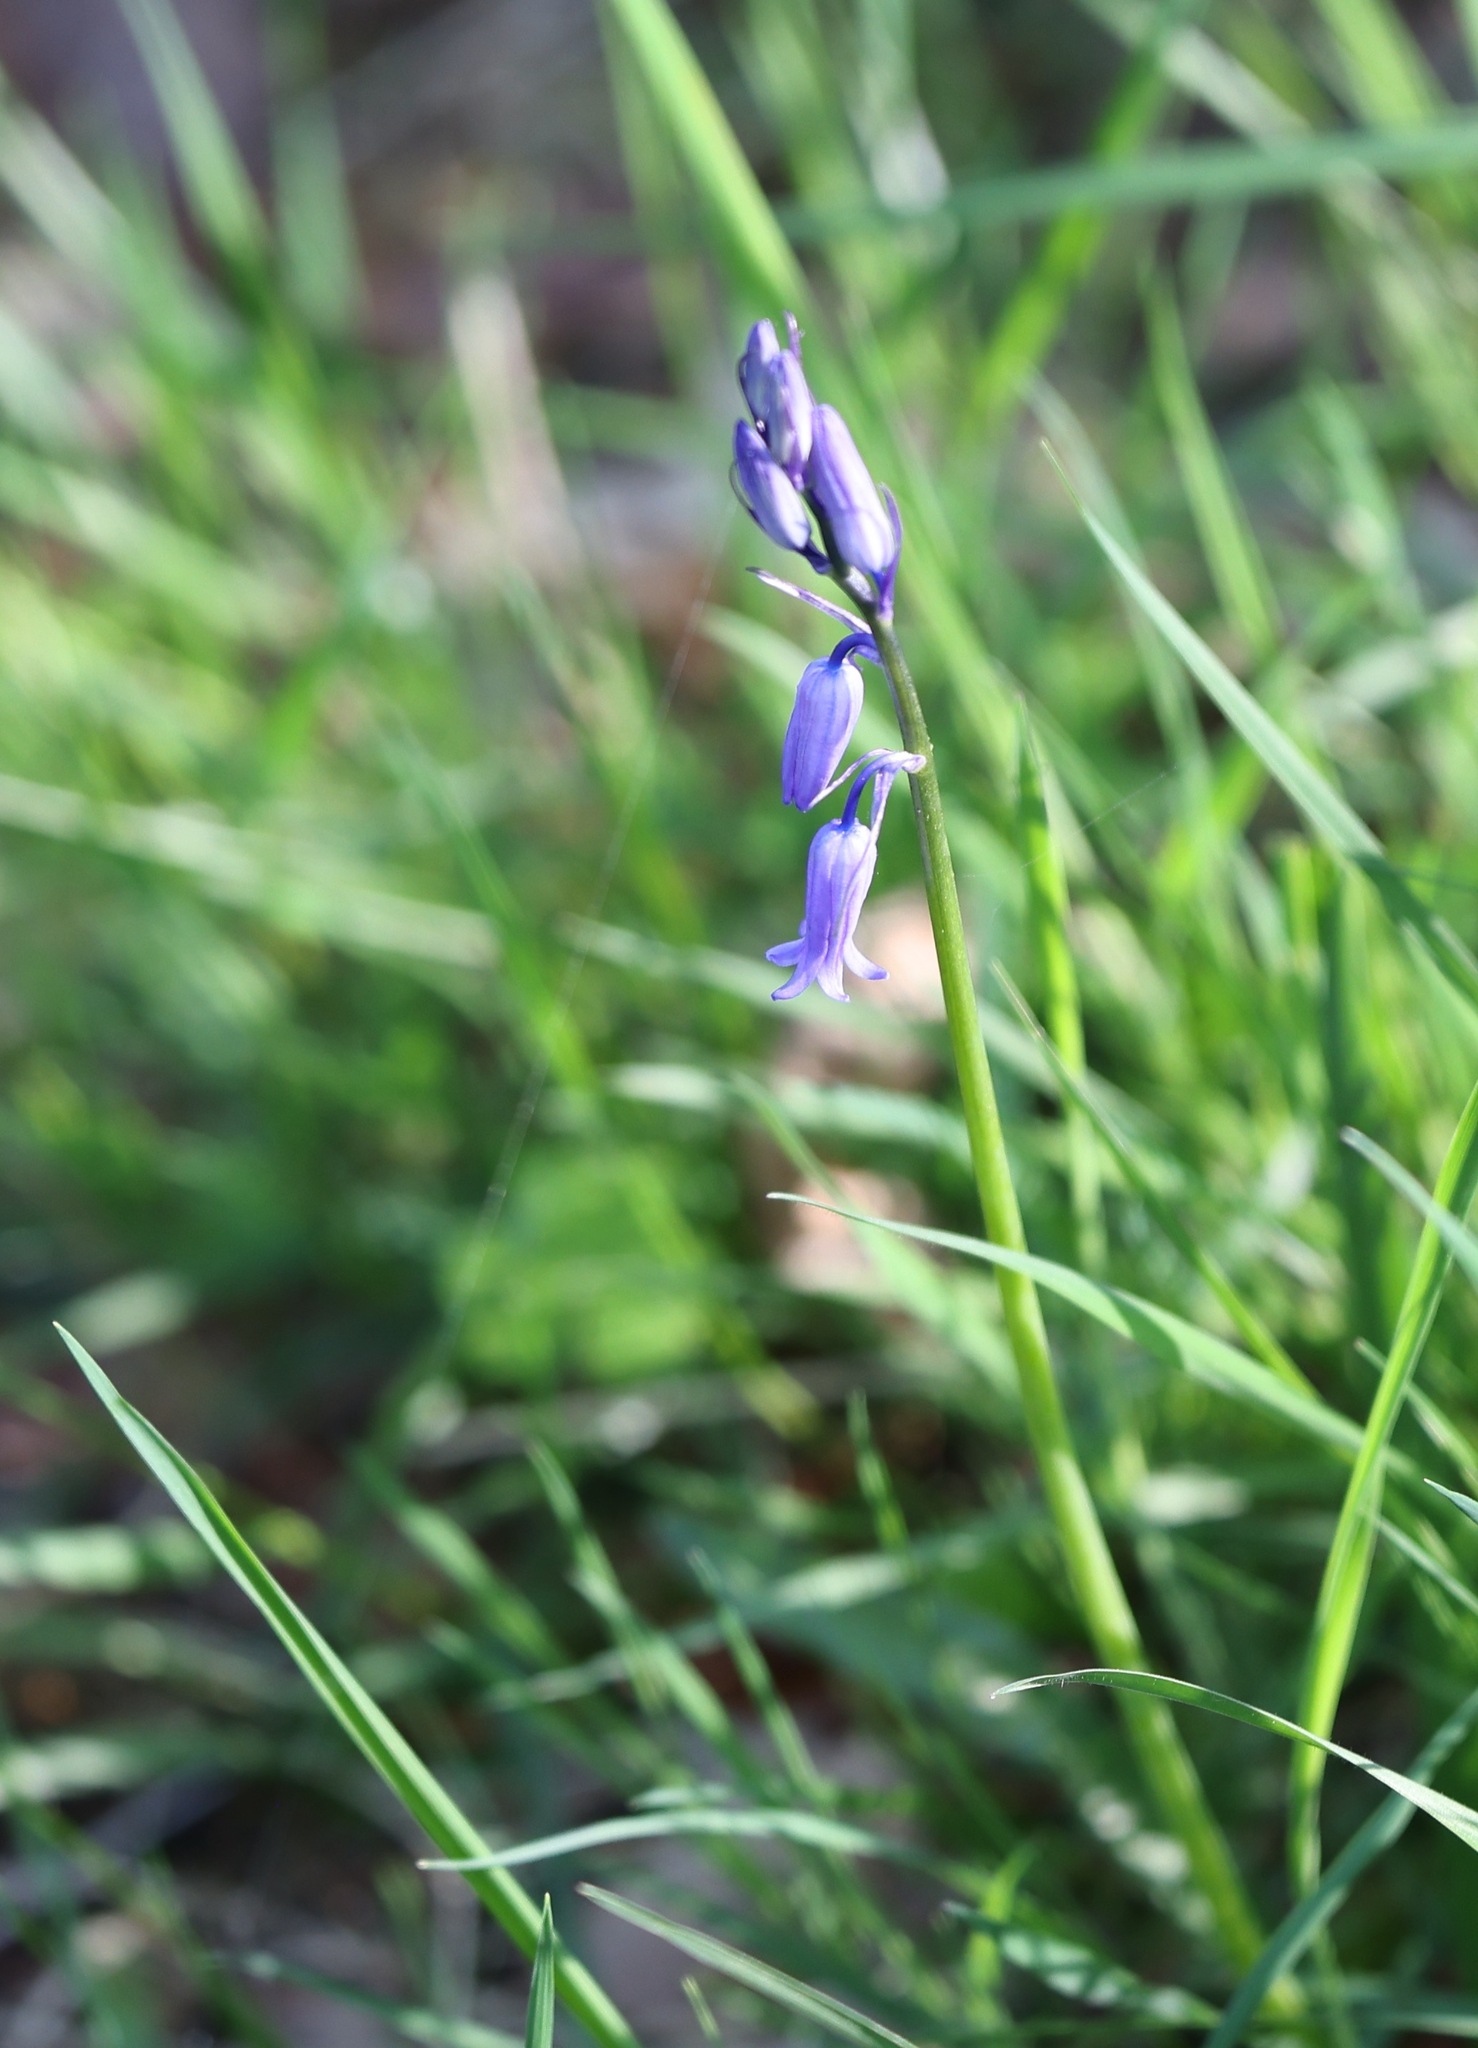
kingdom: Plantae
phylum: Tracheophyta
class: Liliopsida
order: Asparagales
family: Asparagaceae
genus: Hyacinthoides
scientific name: Hyacinthoides non-scripta
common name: Bluebell
